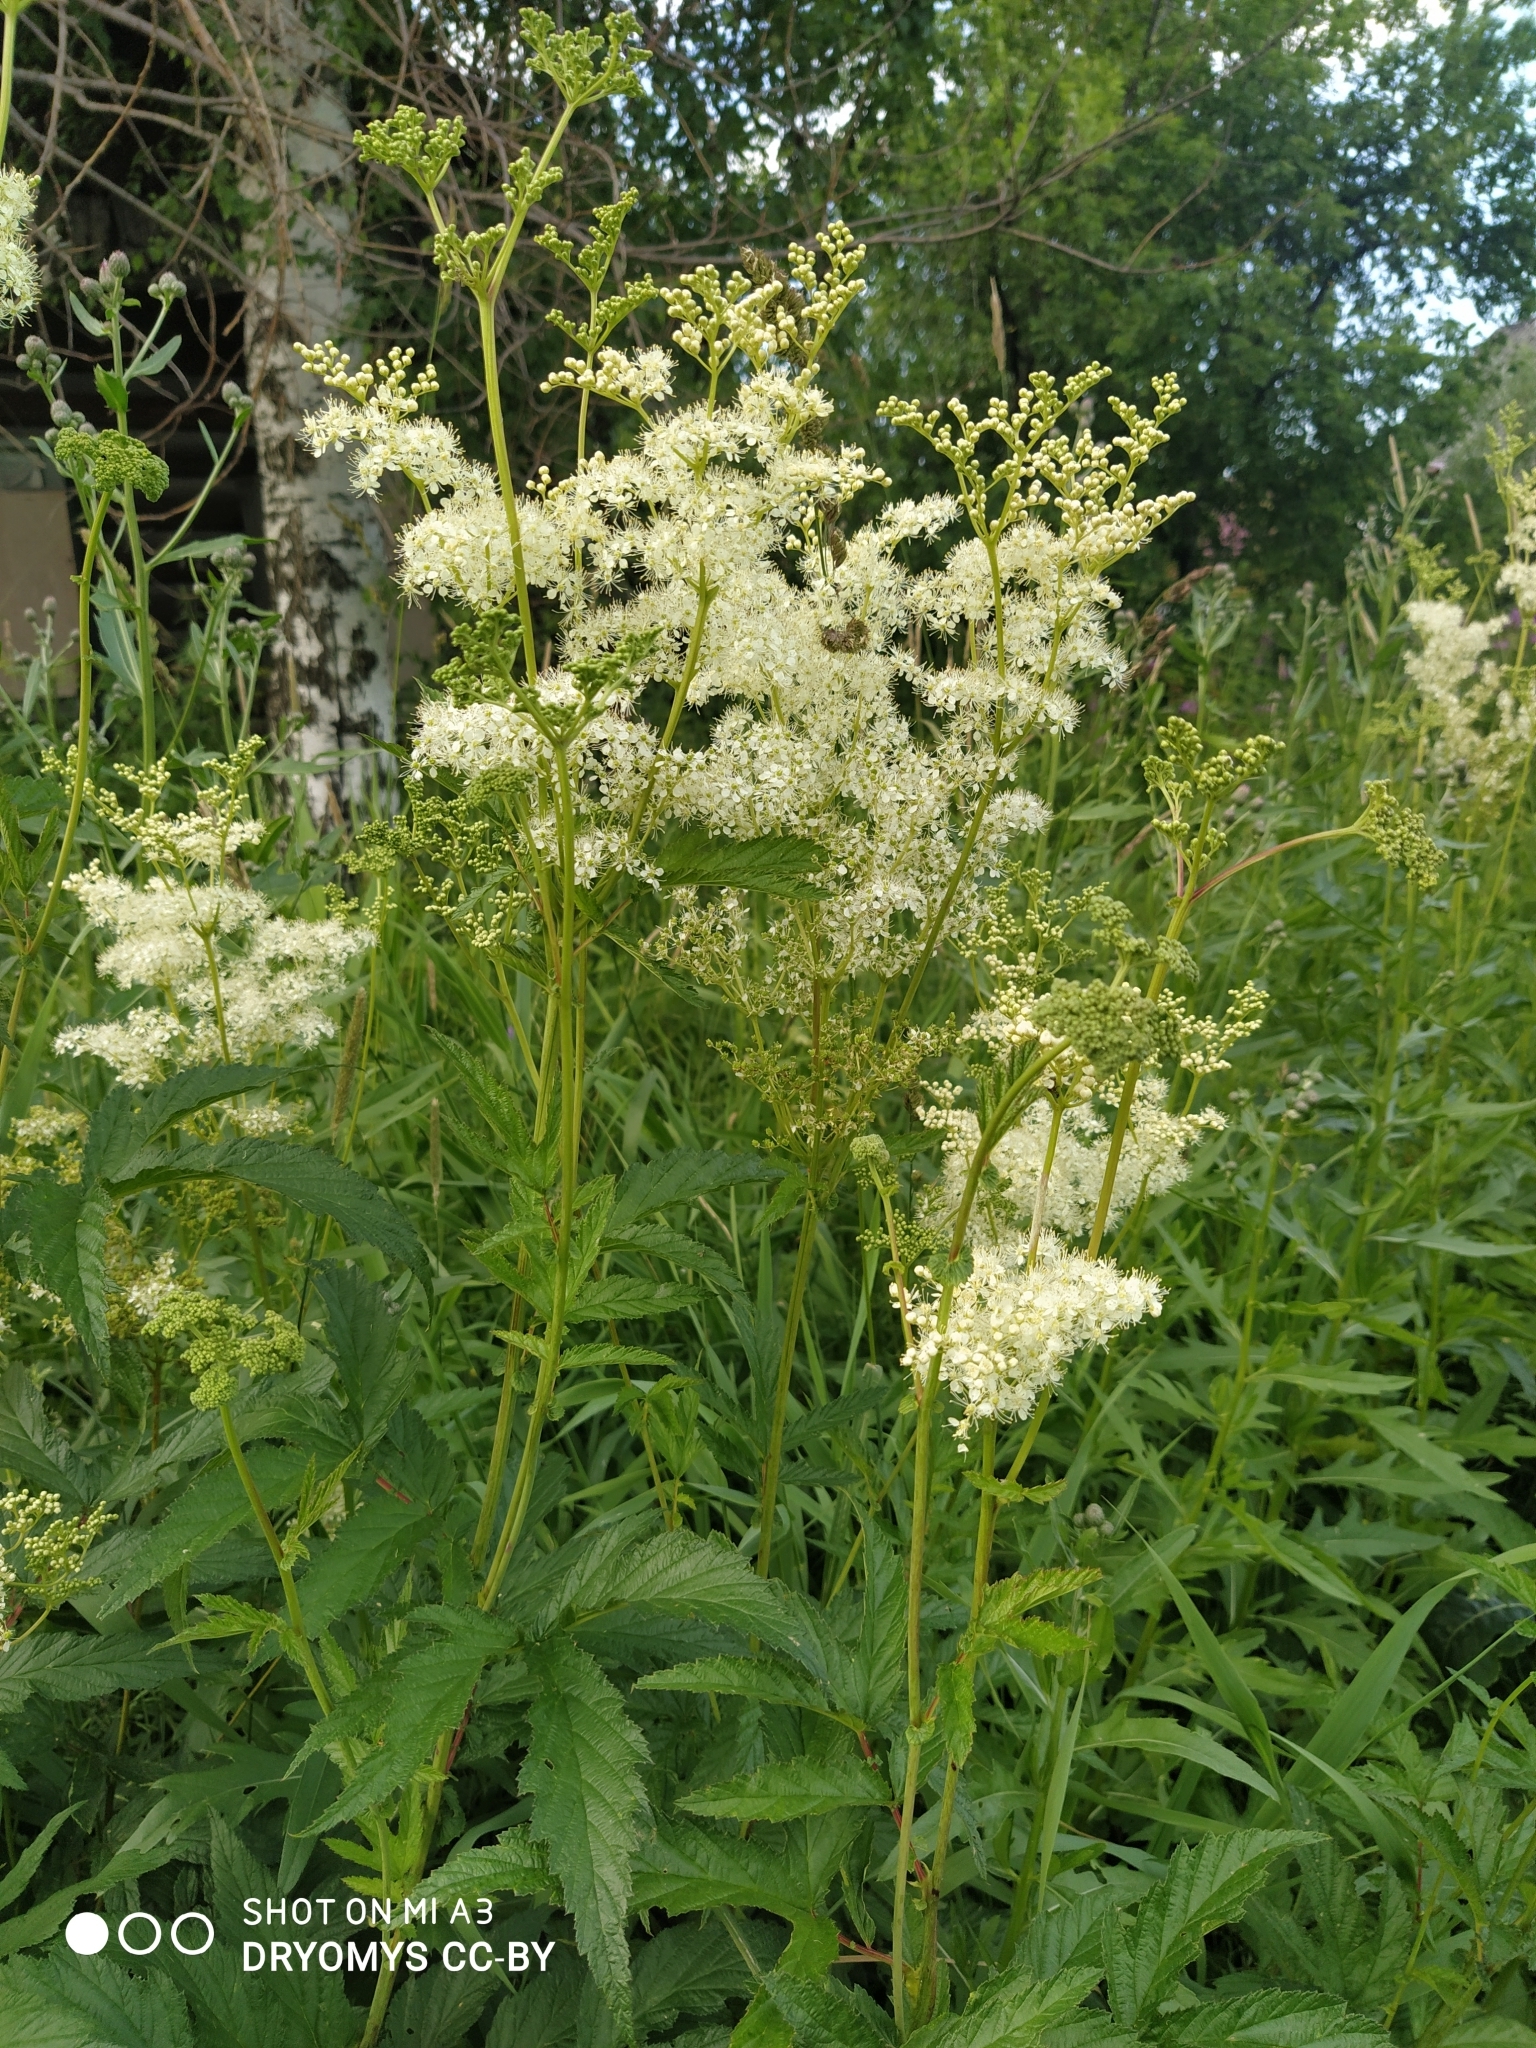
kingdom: Plantae
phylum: Tracheophyta
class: Magnoliopsida
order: Rosales
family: Rosaceae
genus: Filipendula
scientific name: Filipendula ulmaria
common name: Meadowsweet
